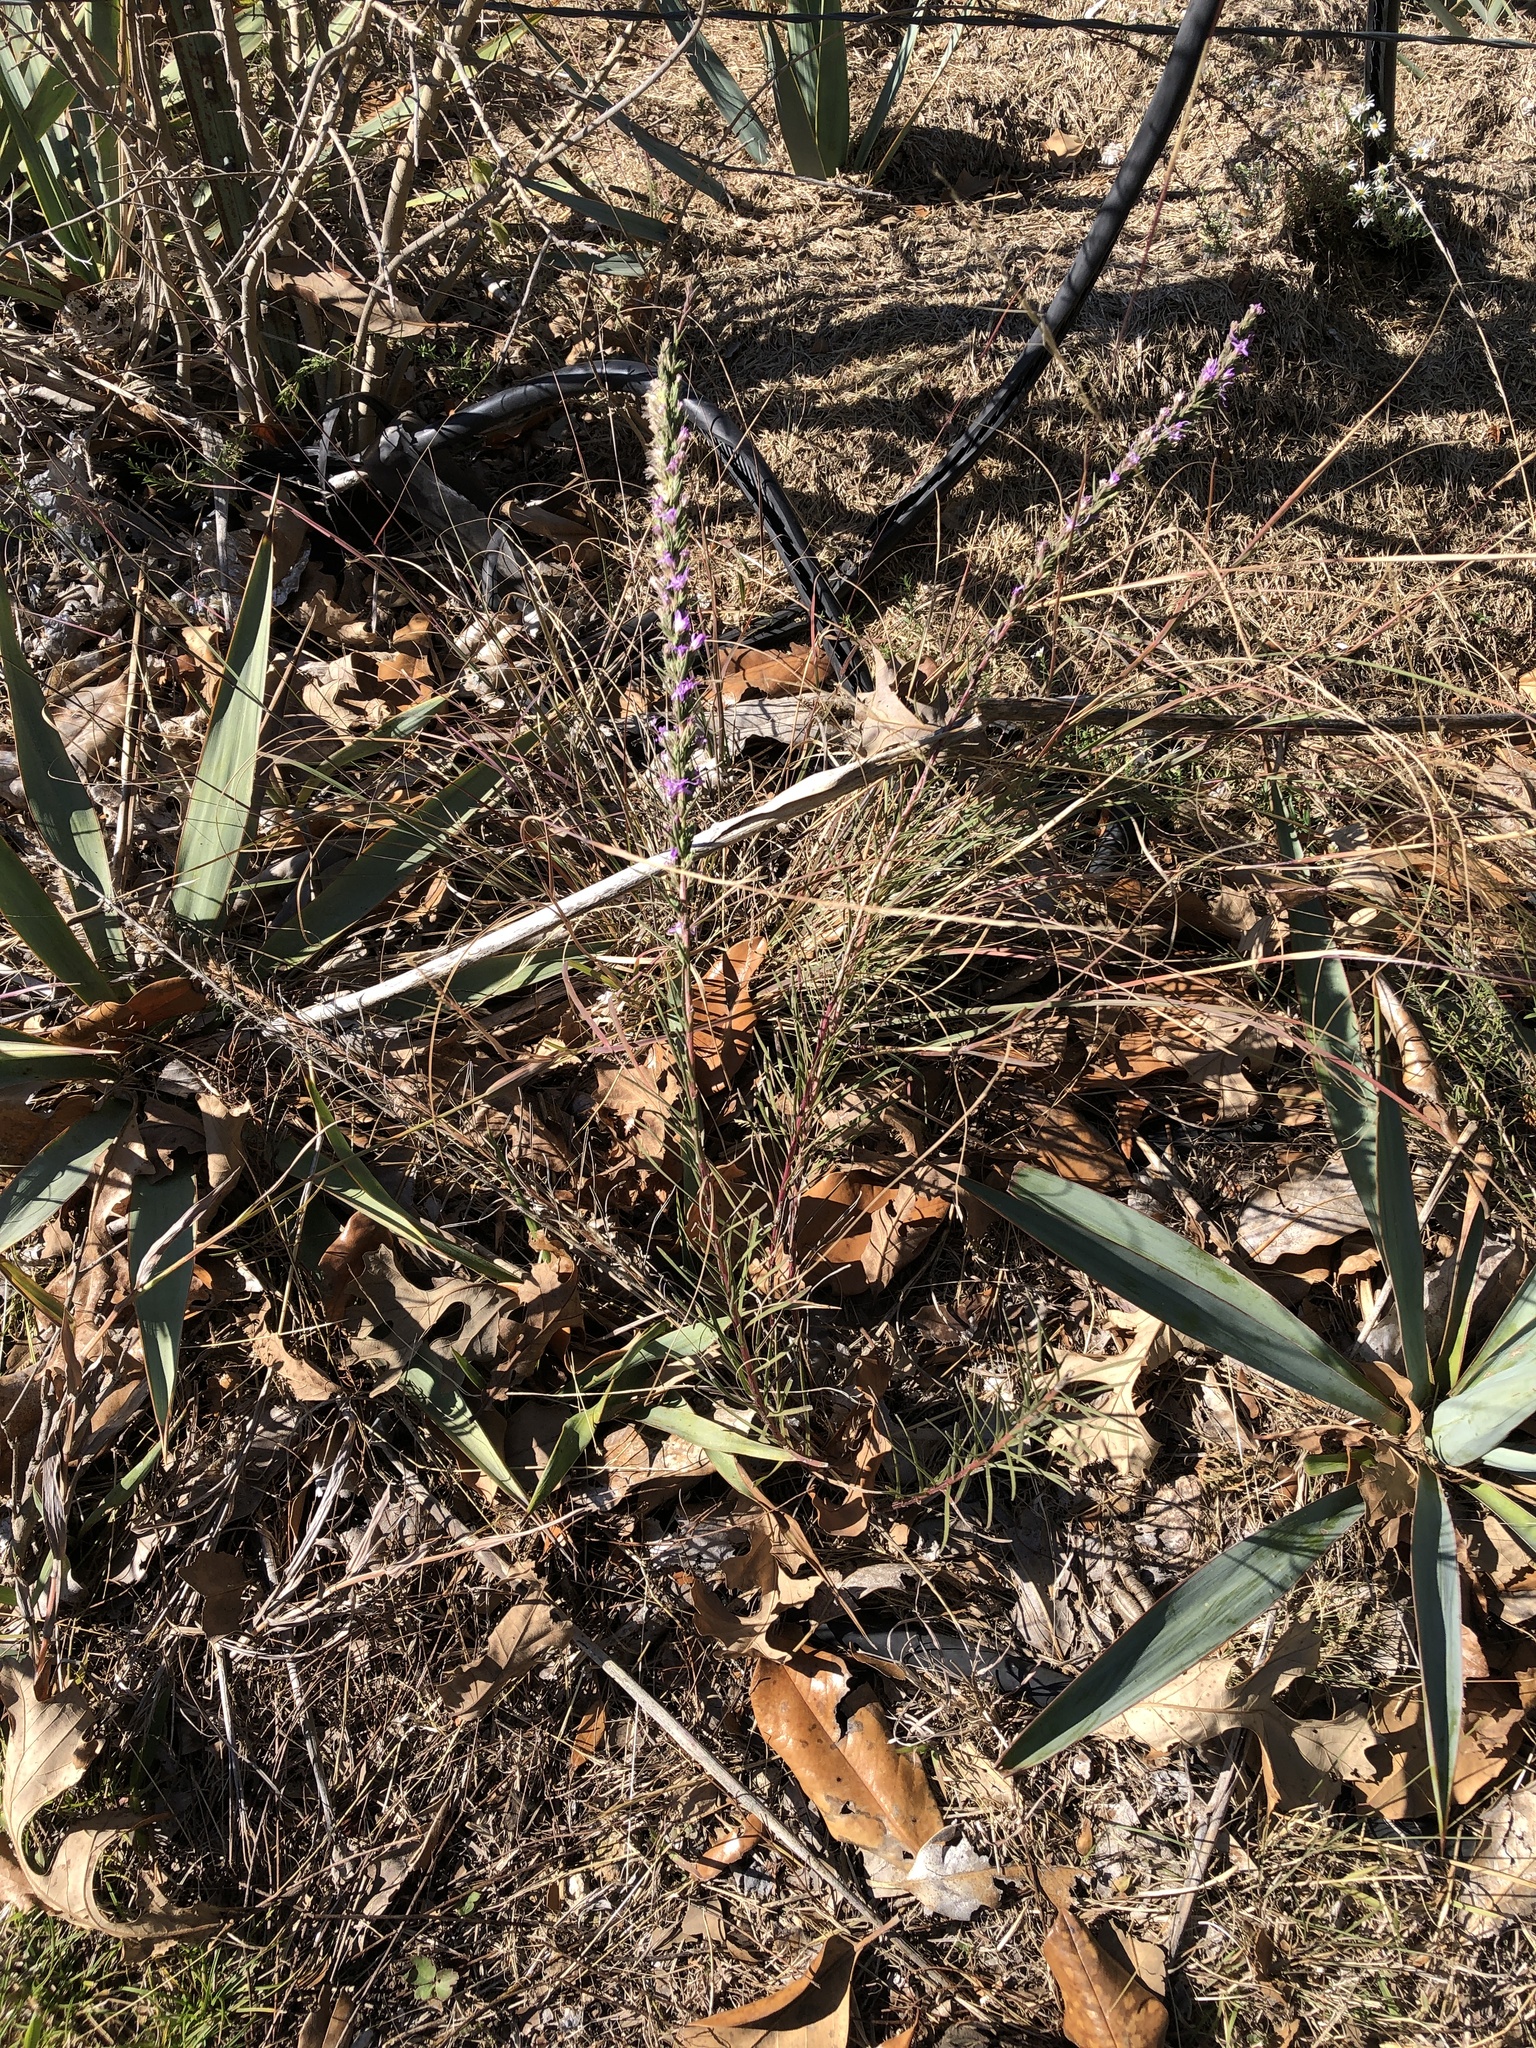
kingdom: Plantae
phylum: Tracheophyta
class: Magnoliopsida
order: Asterales
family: Asteraceae
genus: Liatris
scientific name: Liatris punctata
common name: Dotted gayfeather
